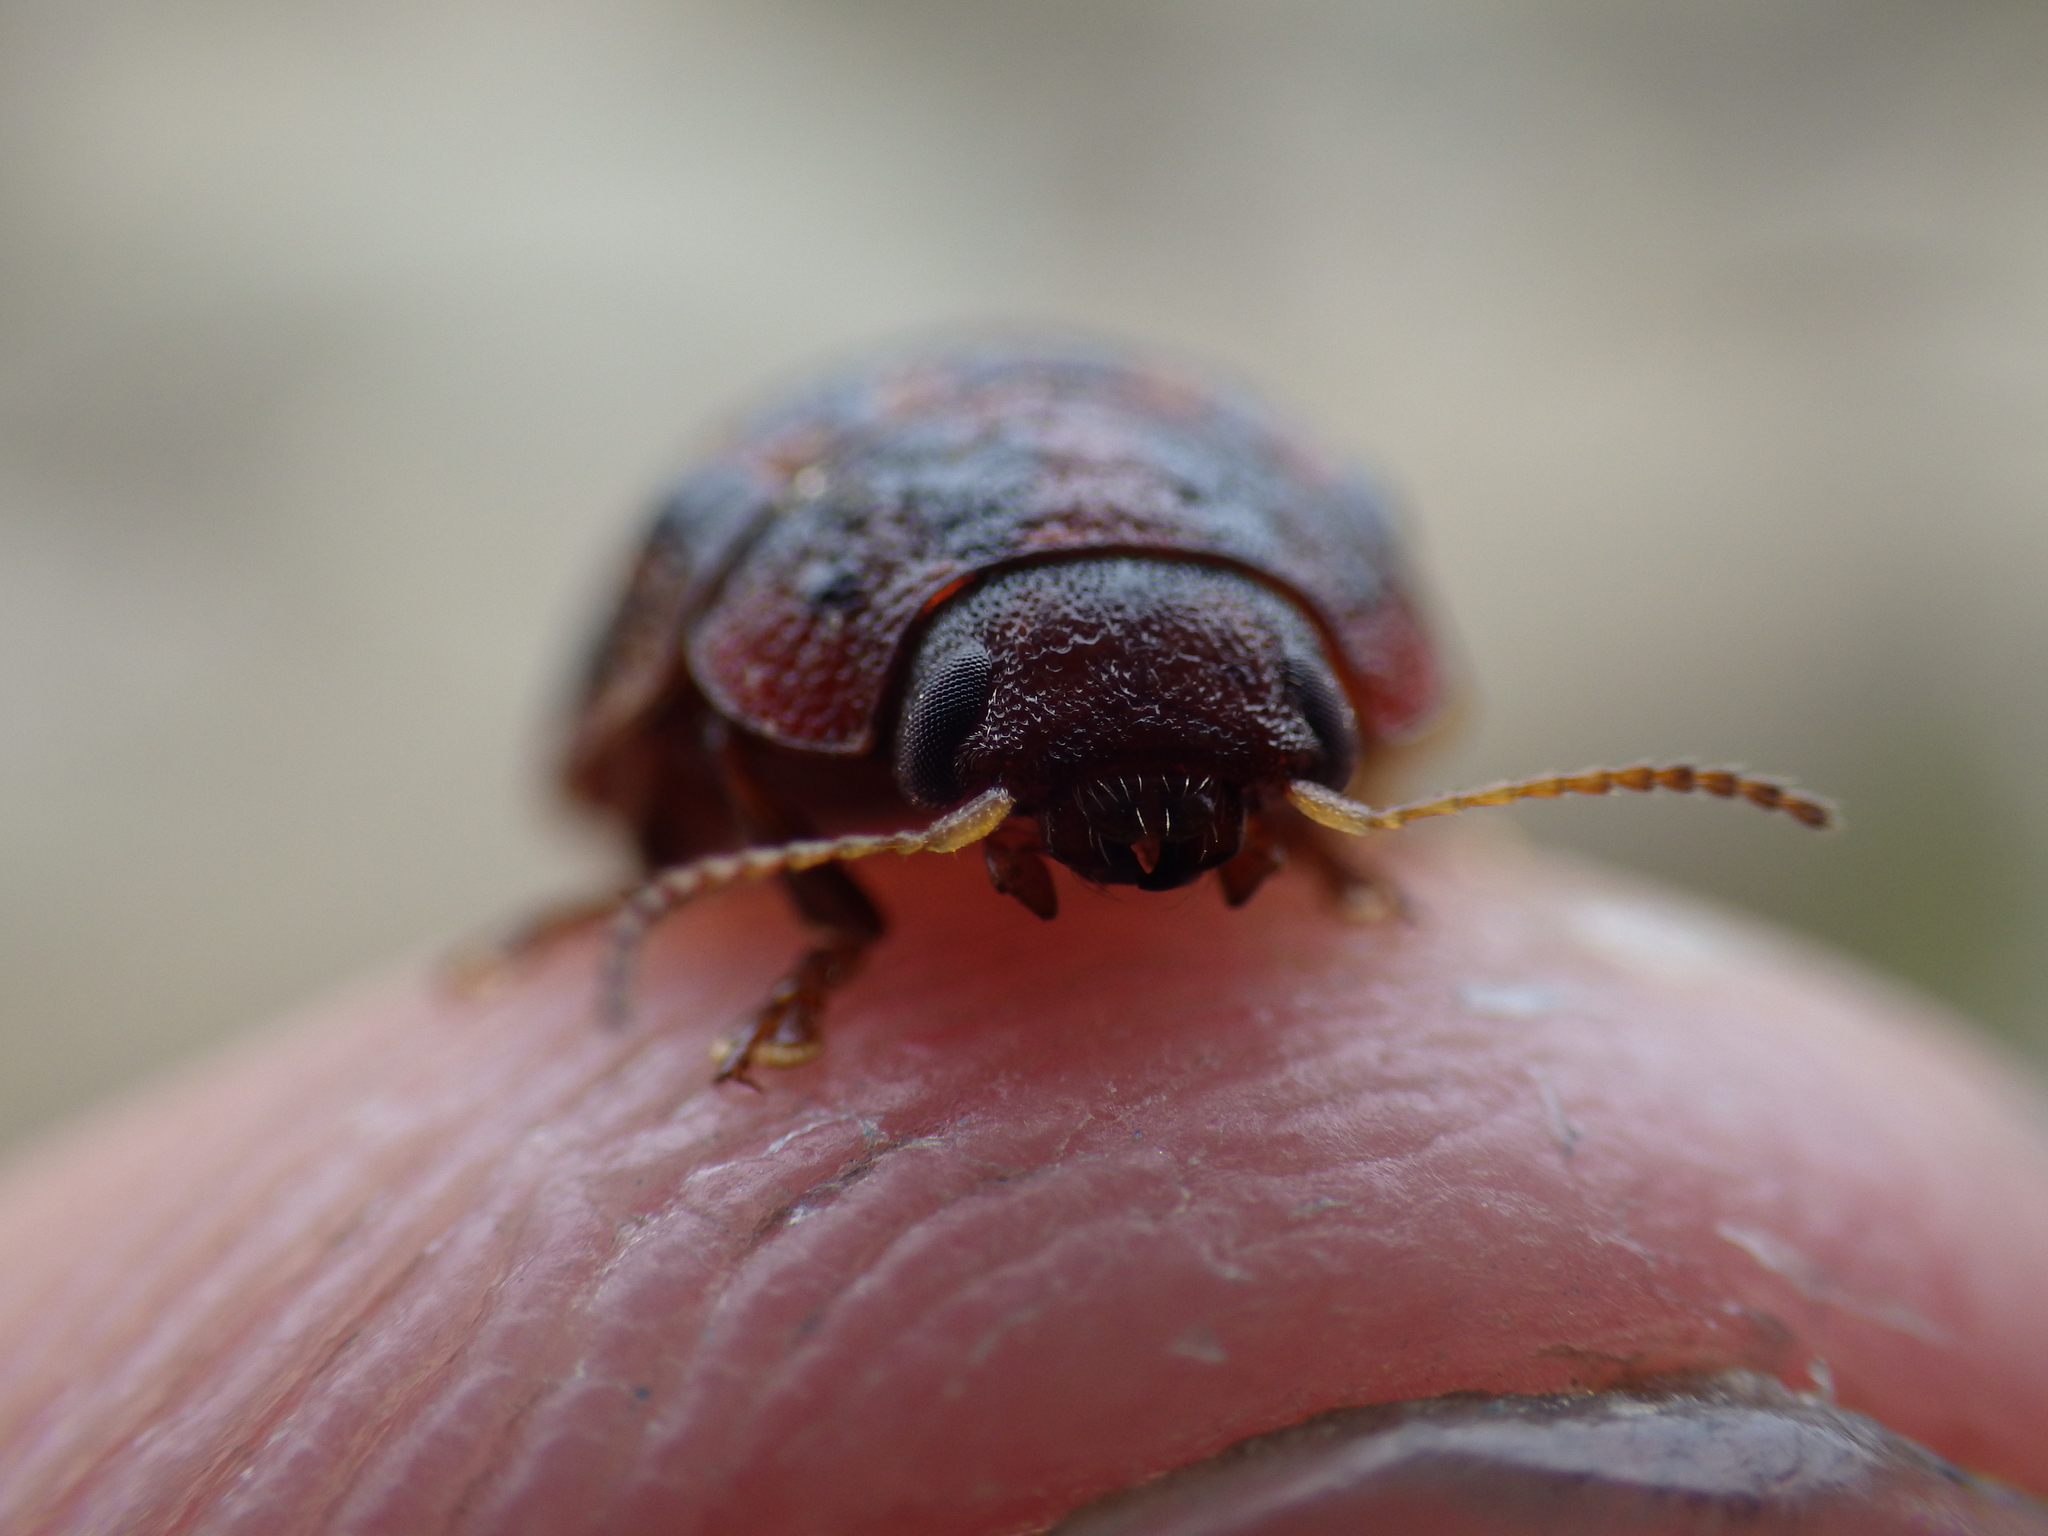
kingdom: Animalia
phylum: Arthropoda
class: Insecta
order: Coleoptera
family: Chrysomelidae
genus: Trachymela
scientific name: Trachymela sloanei
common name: Australian tortoise beetle
